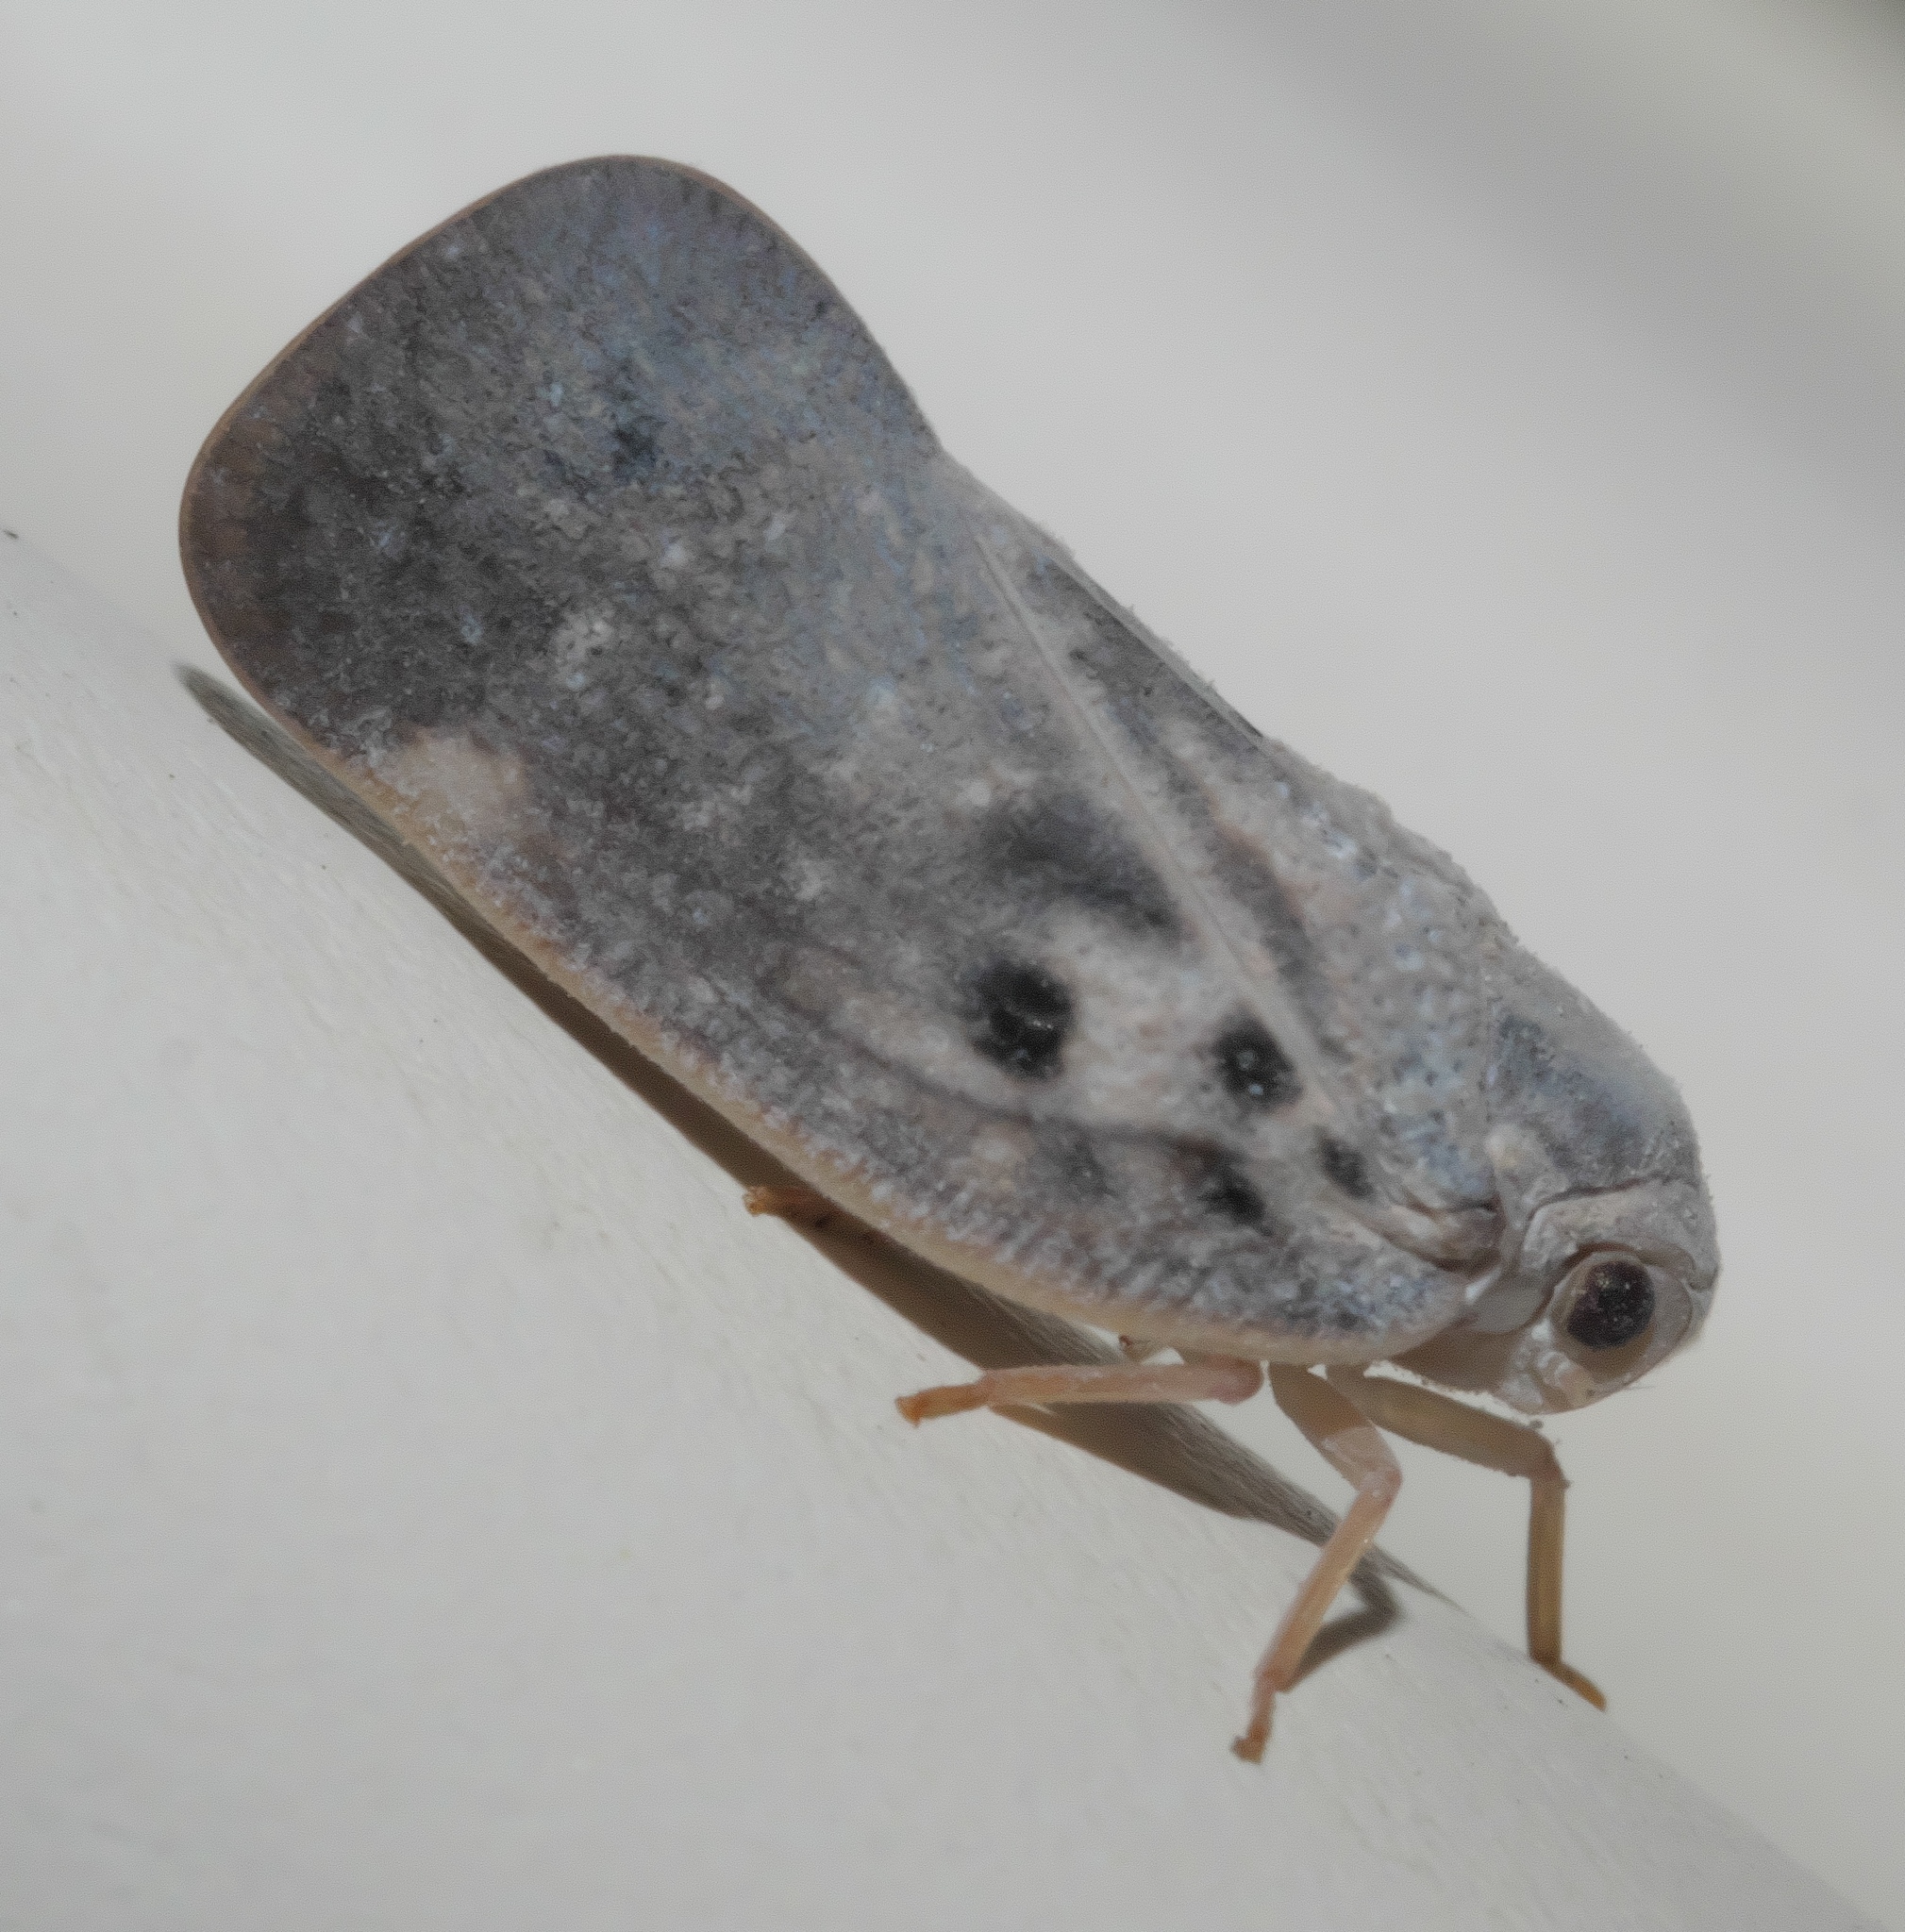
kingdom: Animalia
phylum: Arthropoda
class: Insecta
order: Hemiptera
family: Flatidae
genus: Metcalfa
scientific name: Metcalfa pruinosa
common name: Citrus flatid planthopper
